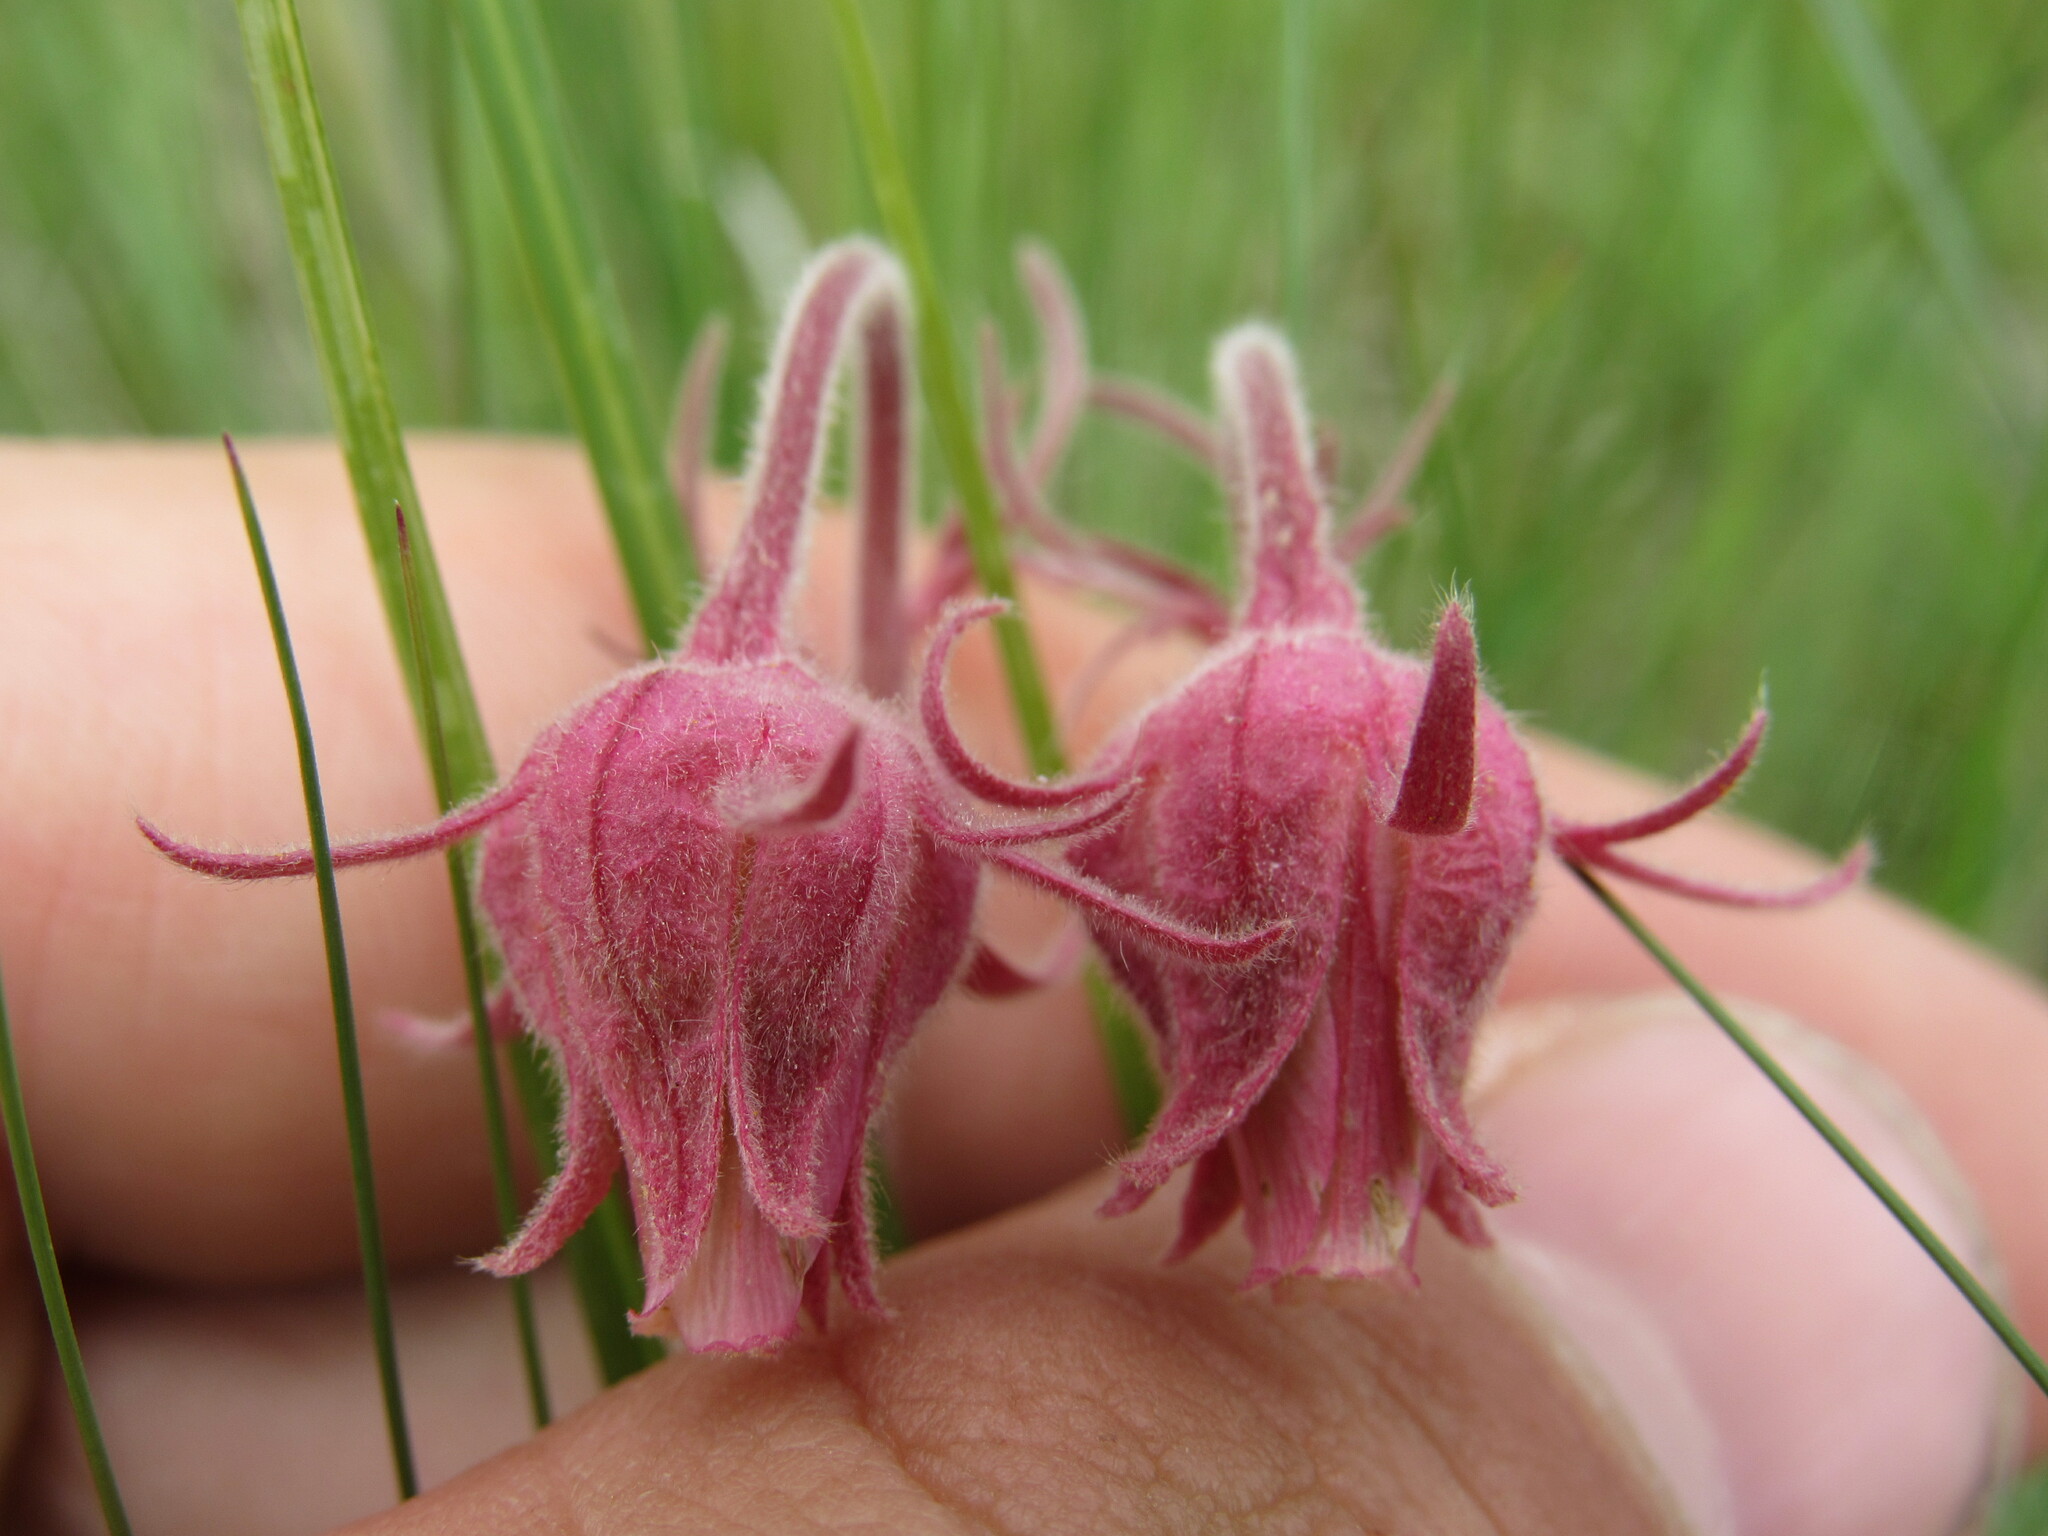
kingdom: Plantae
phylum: Tracheophyta
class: Magnoliopsida
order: Rosales
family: Rosaceae
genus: Geum
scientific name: Geum triflorum
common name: Old man's whiskers
